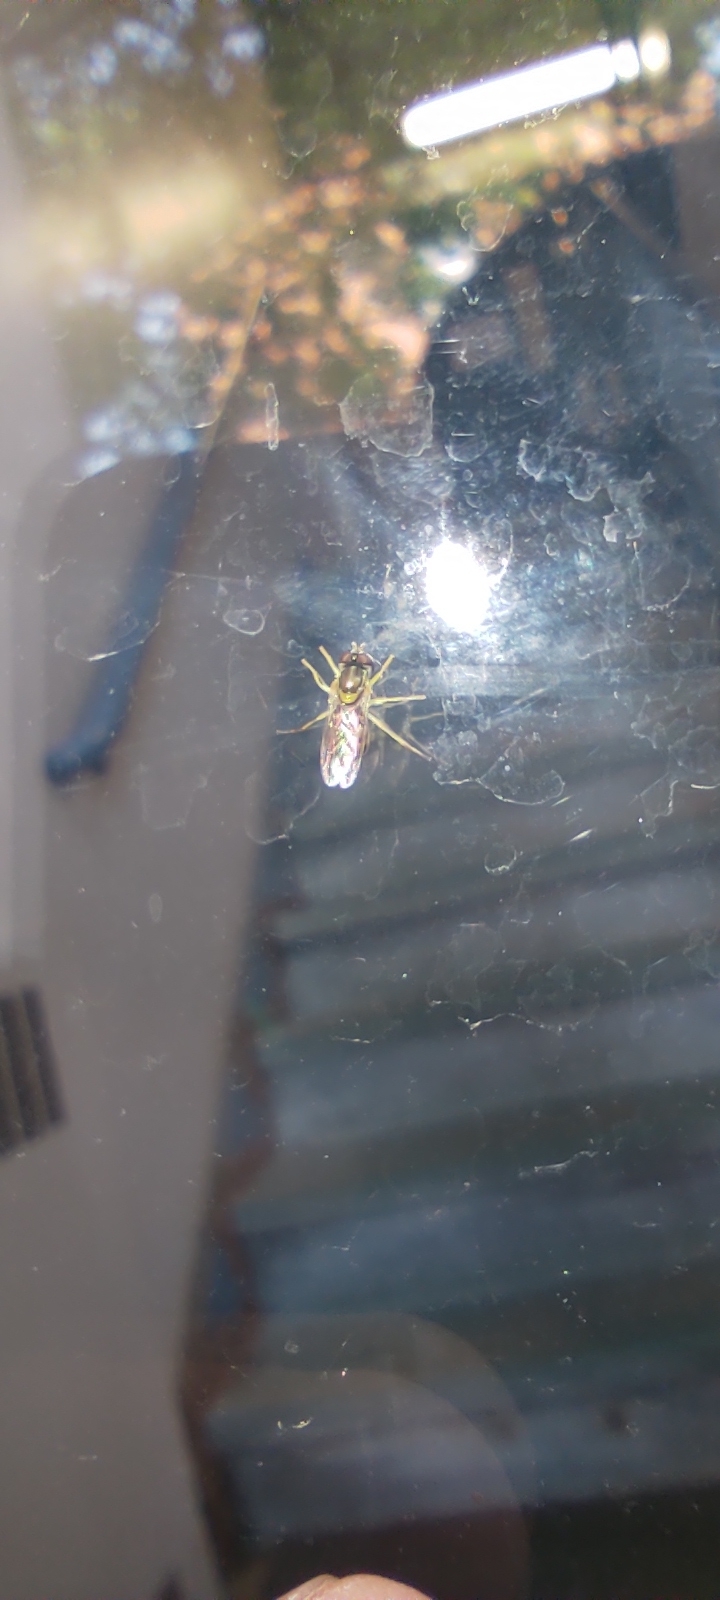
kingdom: Animalia
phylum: Arthropoda
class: Insecta
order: Diptera
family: Syrphidae
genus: Toxomerus
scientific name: Toxomerus marginatus
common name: Syrphid fly
